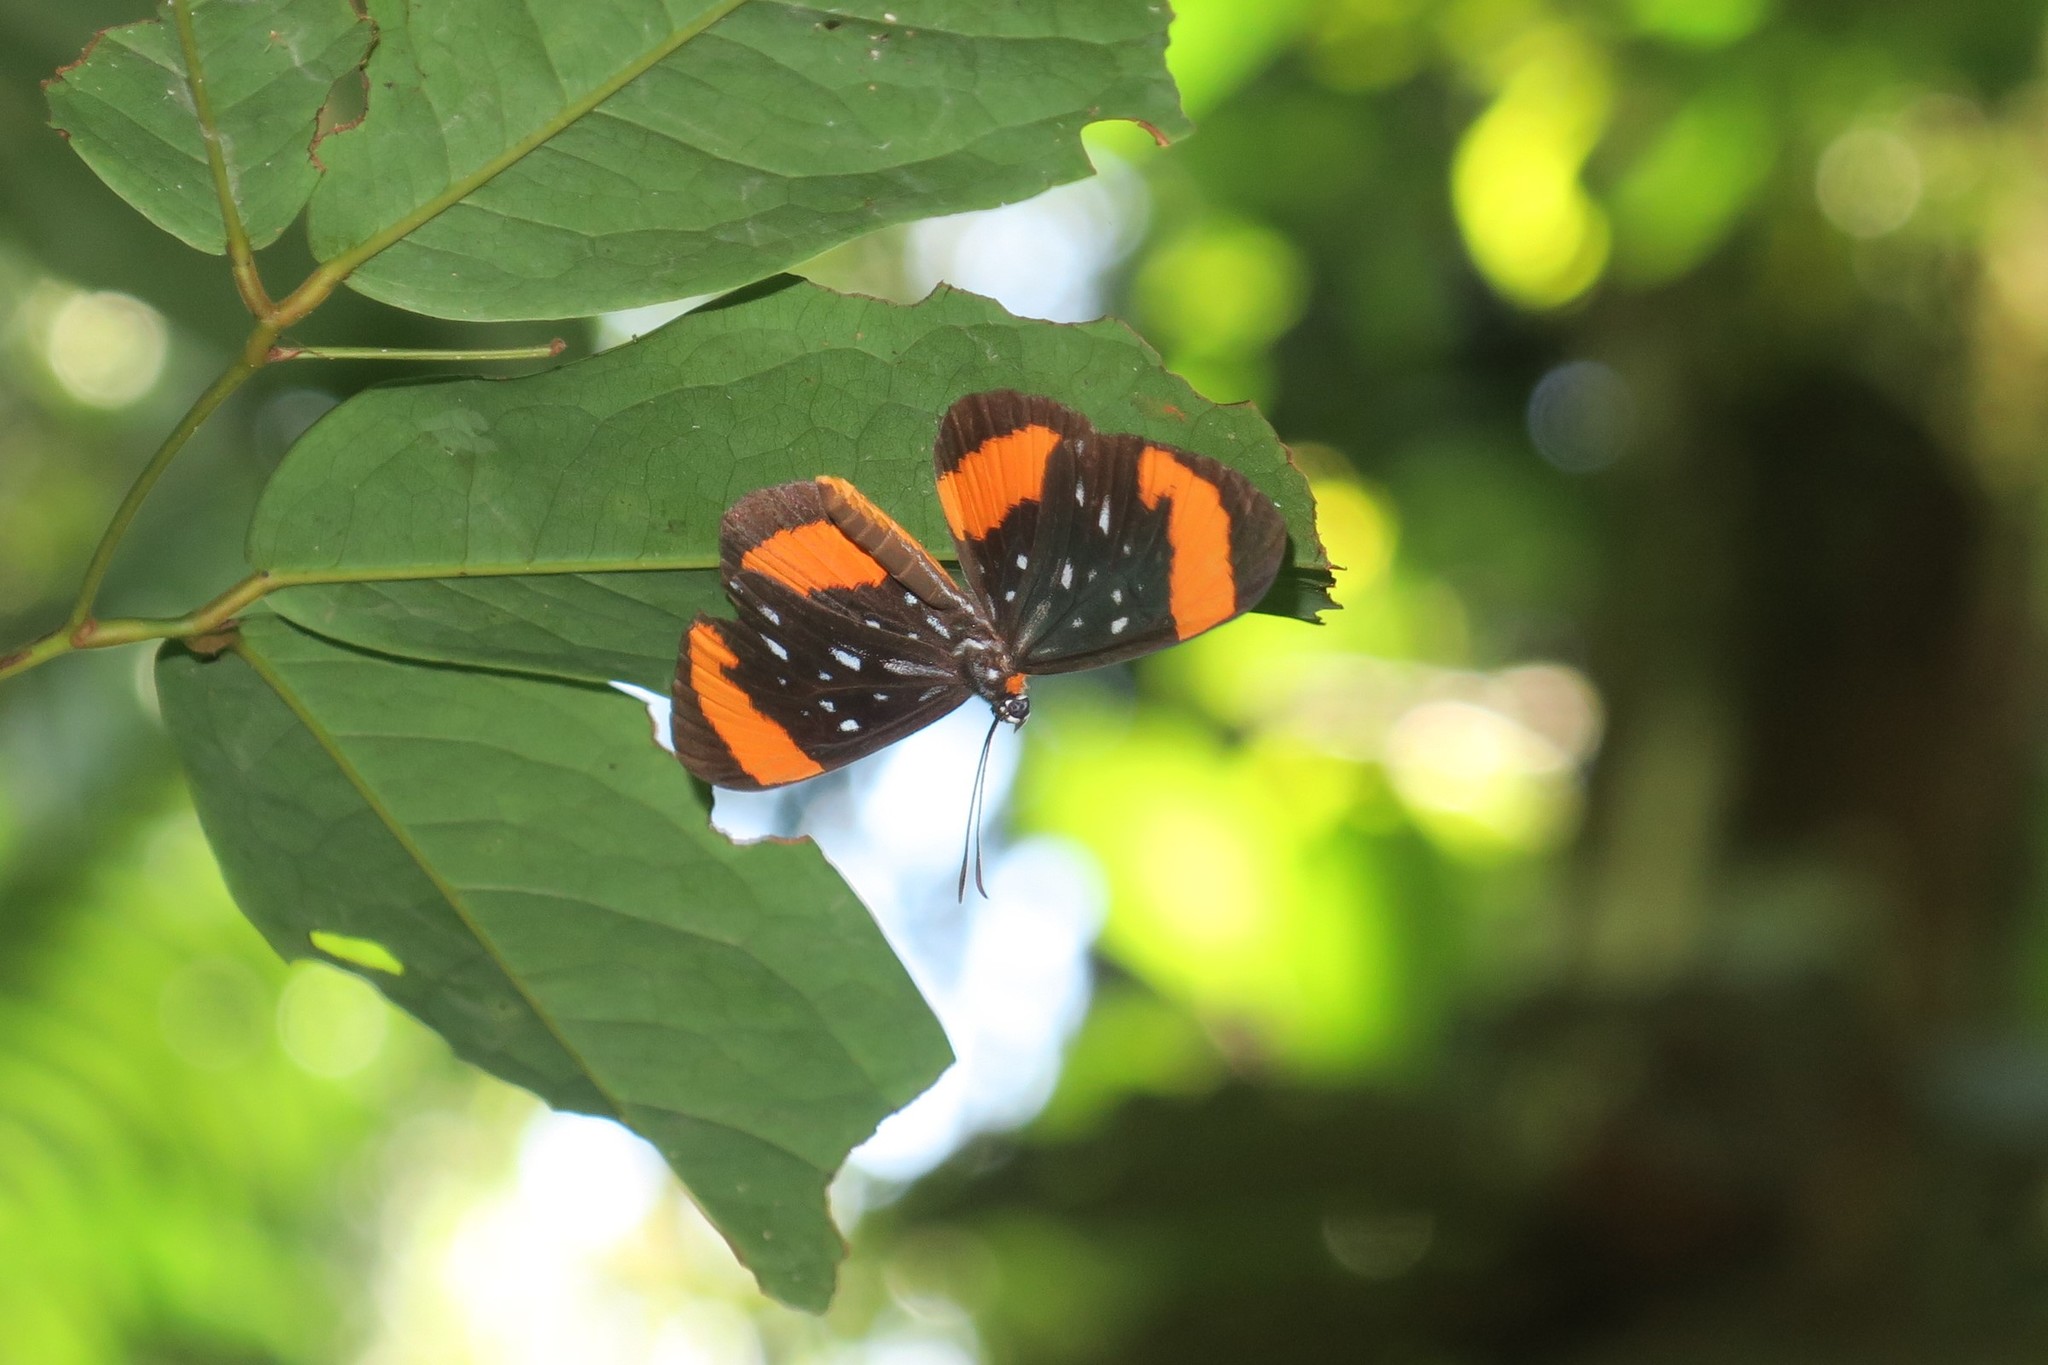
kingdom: Animalia
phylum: Arthropoda
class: Insecta
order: Lepidoptera
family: Riodinidae
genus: Stalachtis
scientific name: Stalachtis euterpe
